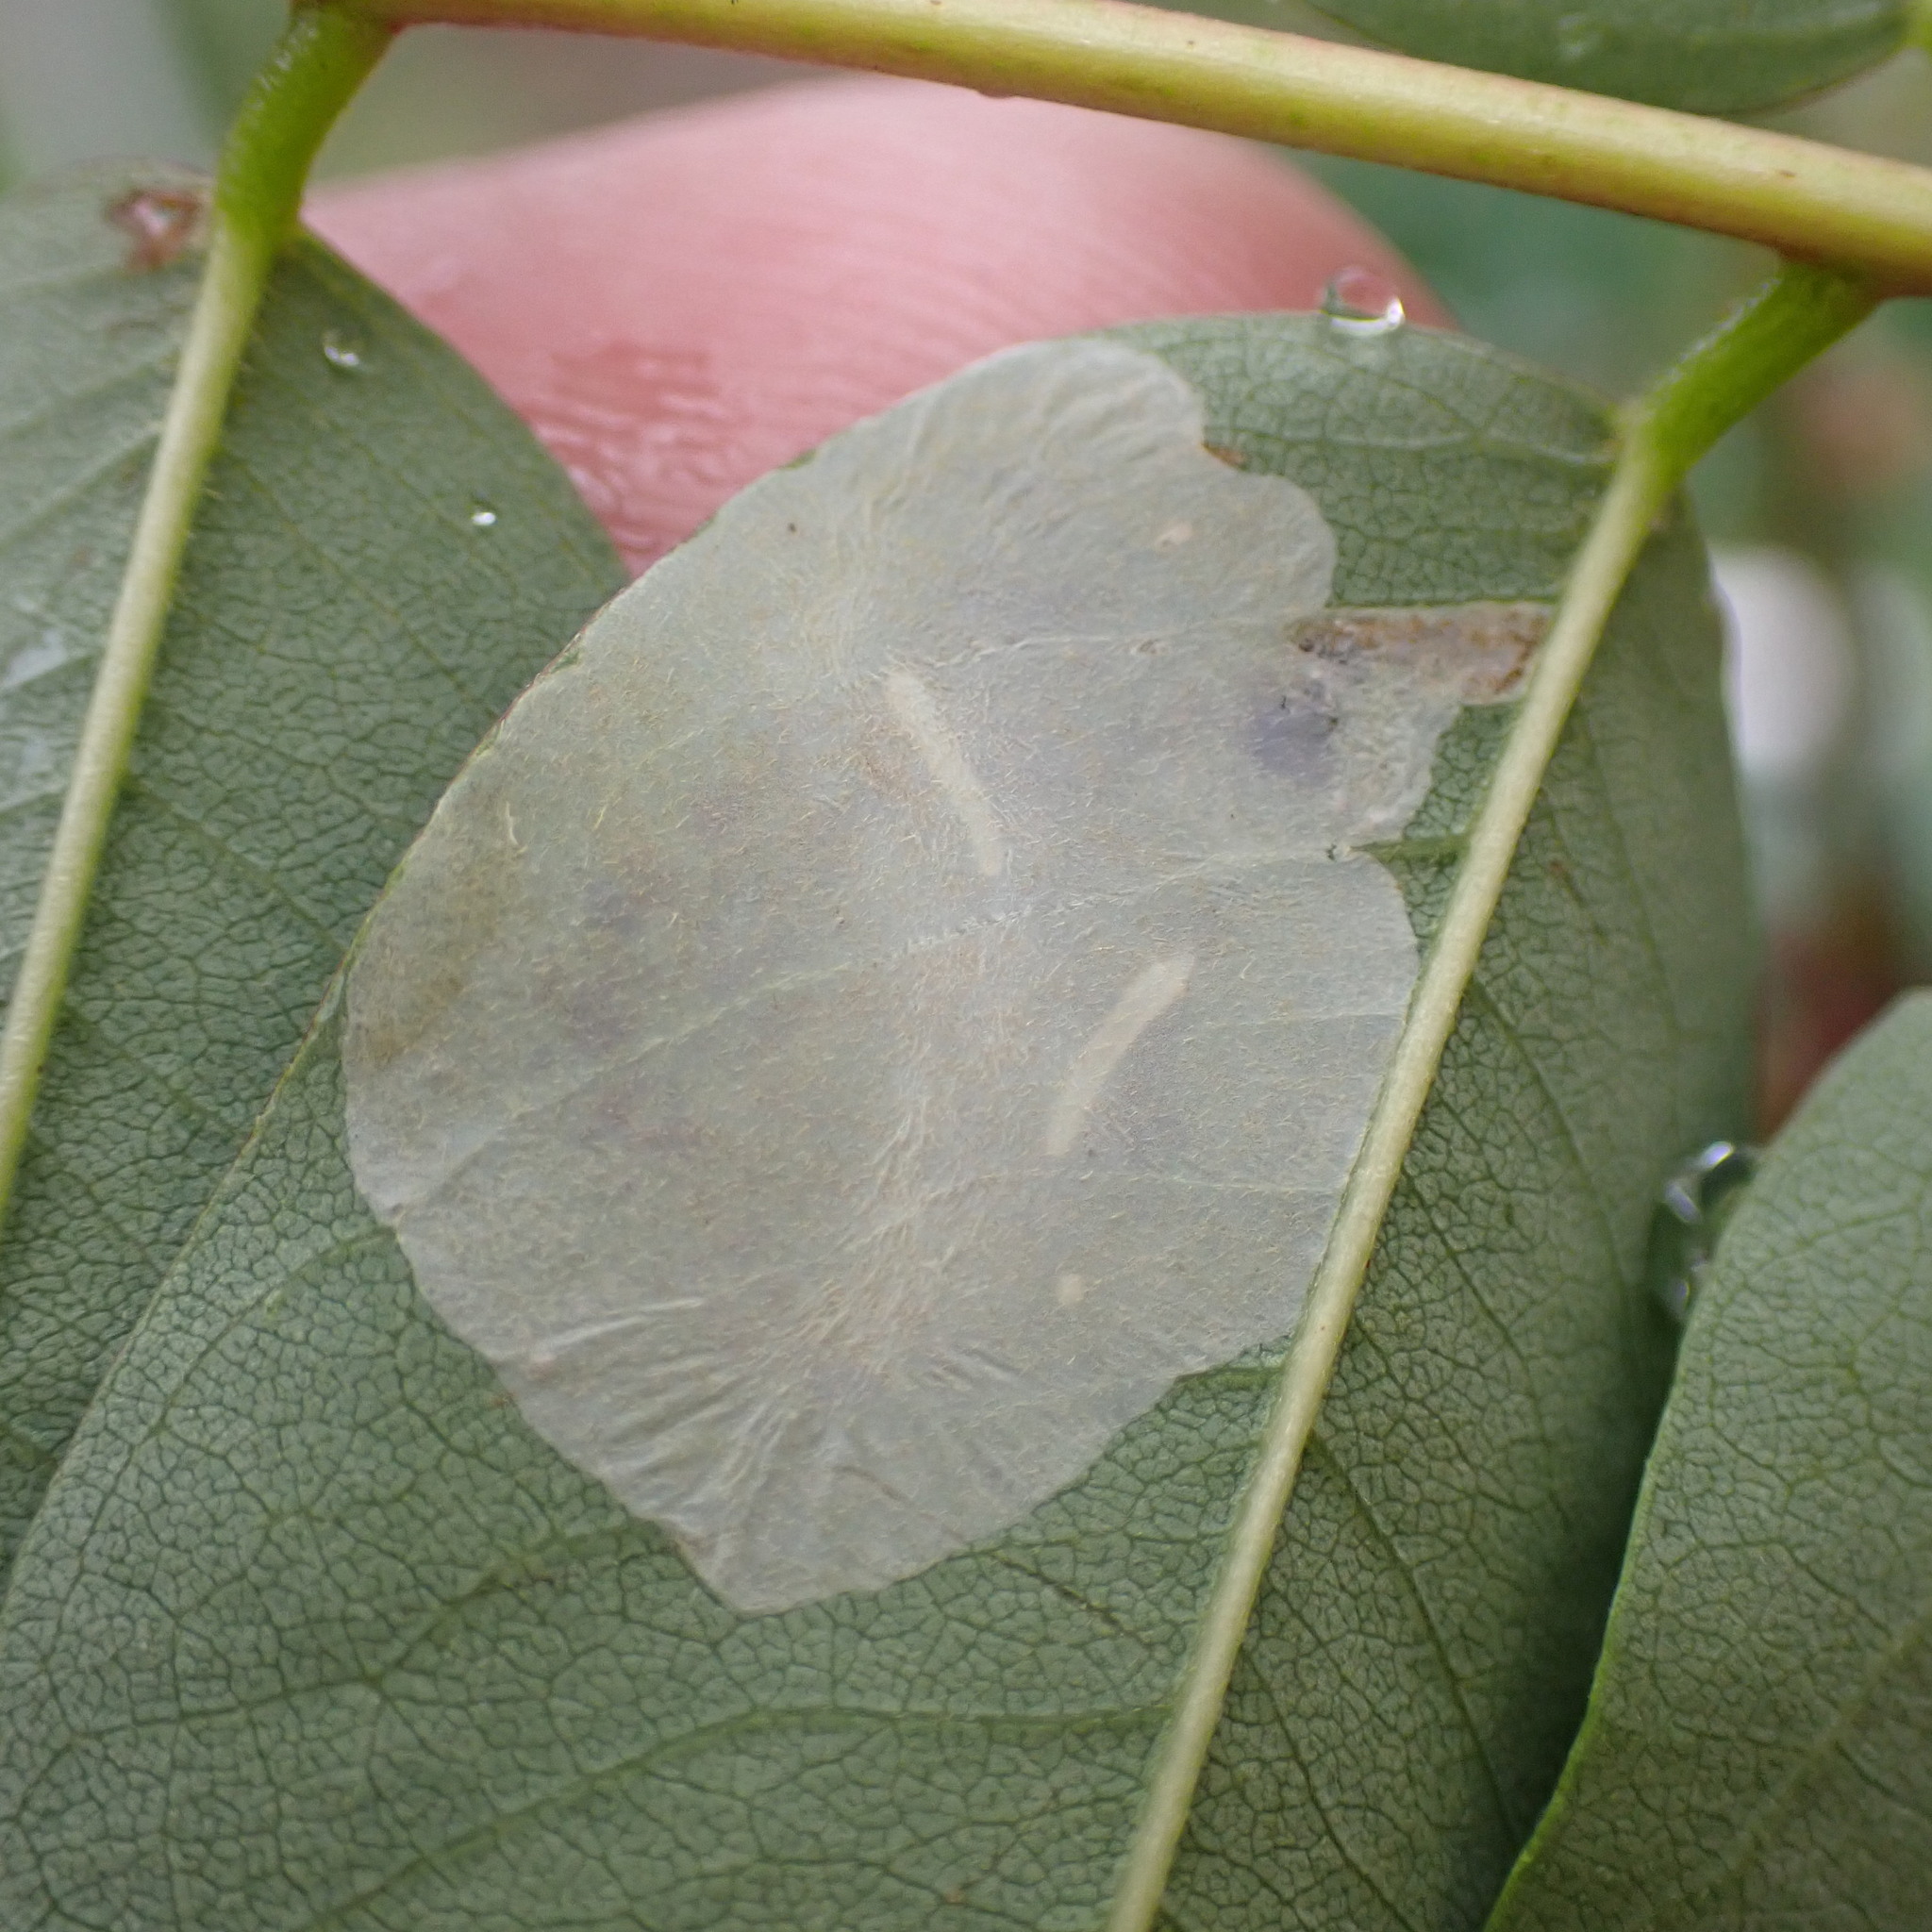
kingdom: Animalia
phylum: Arthropoda
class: Insecta
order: Lepidoptera
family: Gracillariidae
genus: Macrosaccus
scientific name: Macrosaccus robiniella
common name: Leaf blotch miner moth
